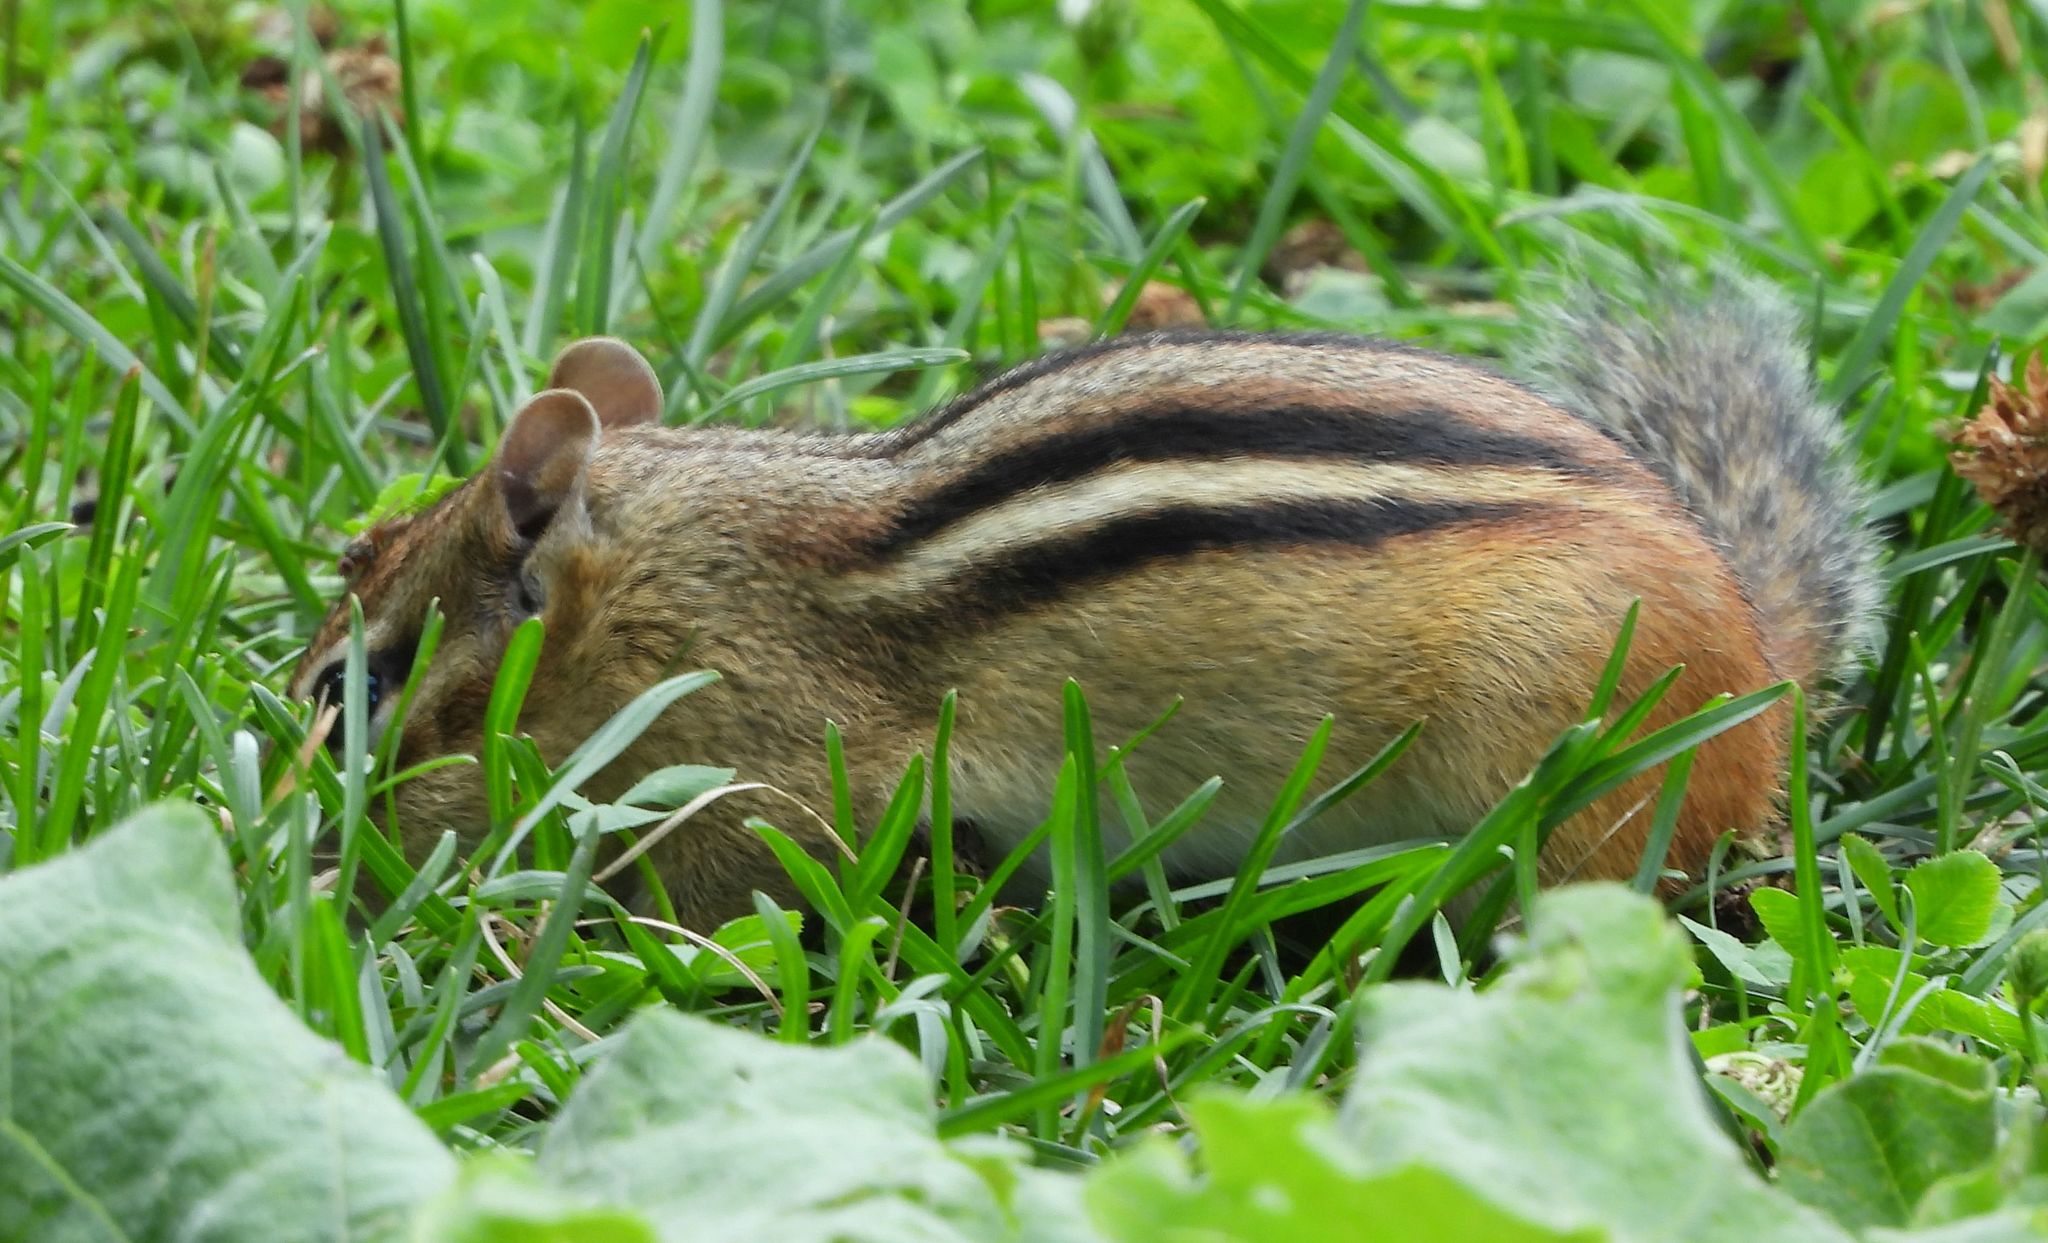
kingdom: Animalia
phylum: Chordata
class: Mammalia
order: Rodentia
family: Sciuridae
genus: Tamias
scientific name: Tamias striatus
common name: Eastern chipmunk
